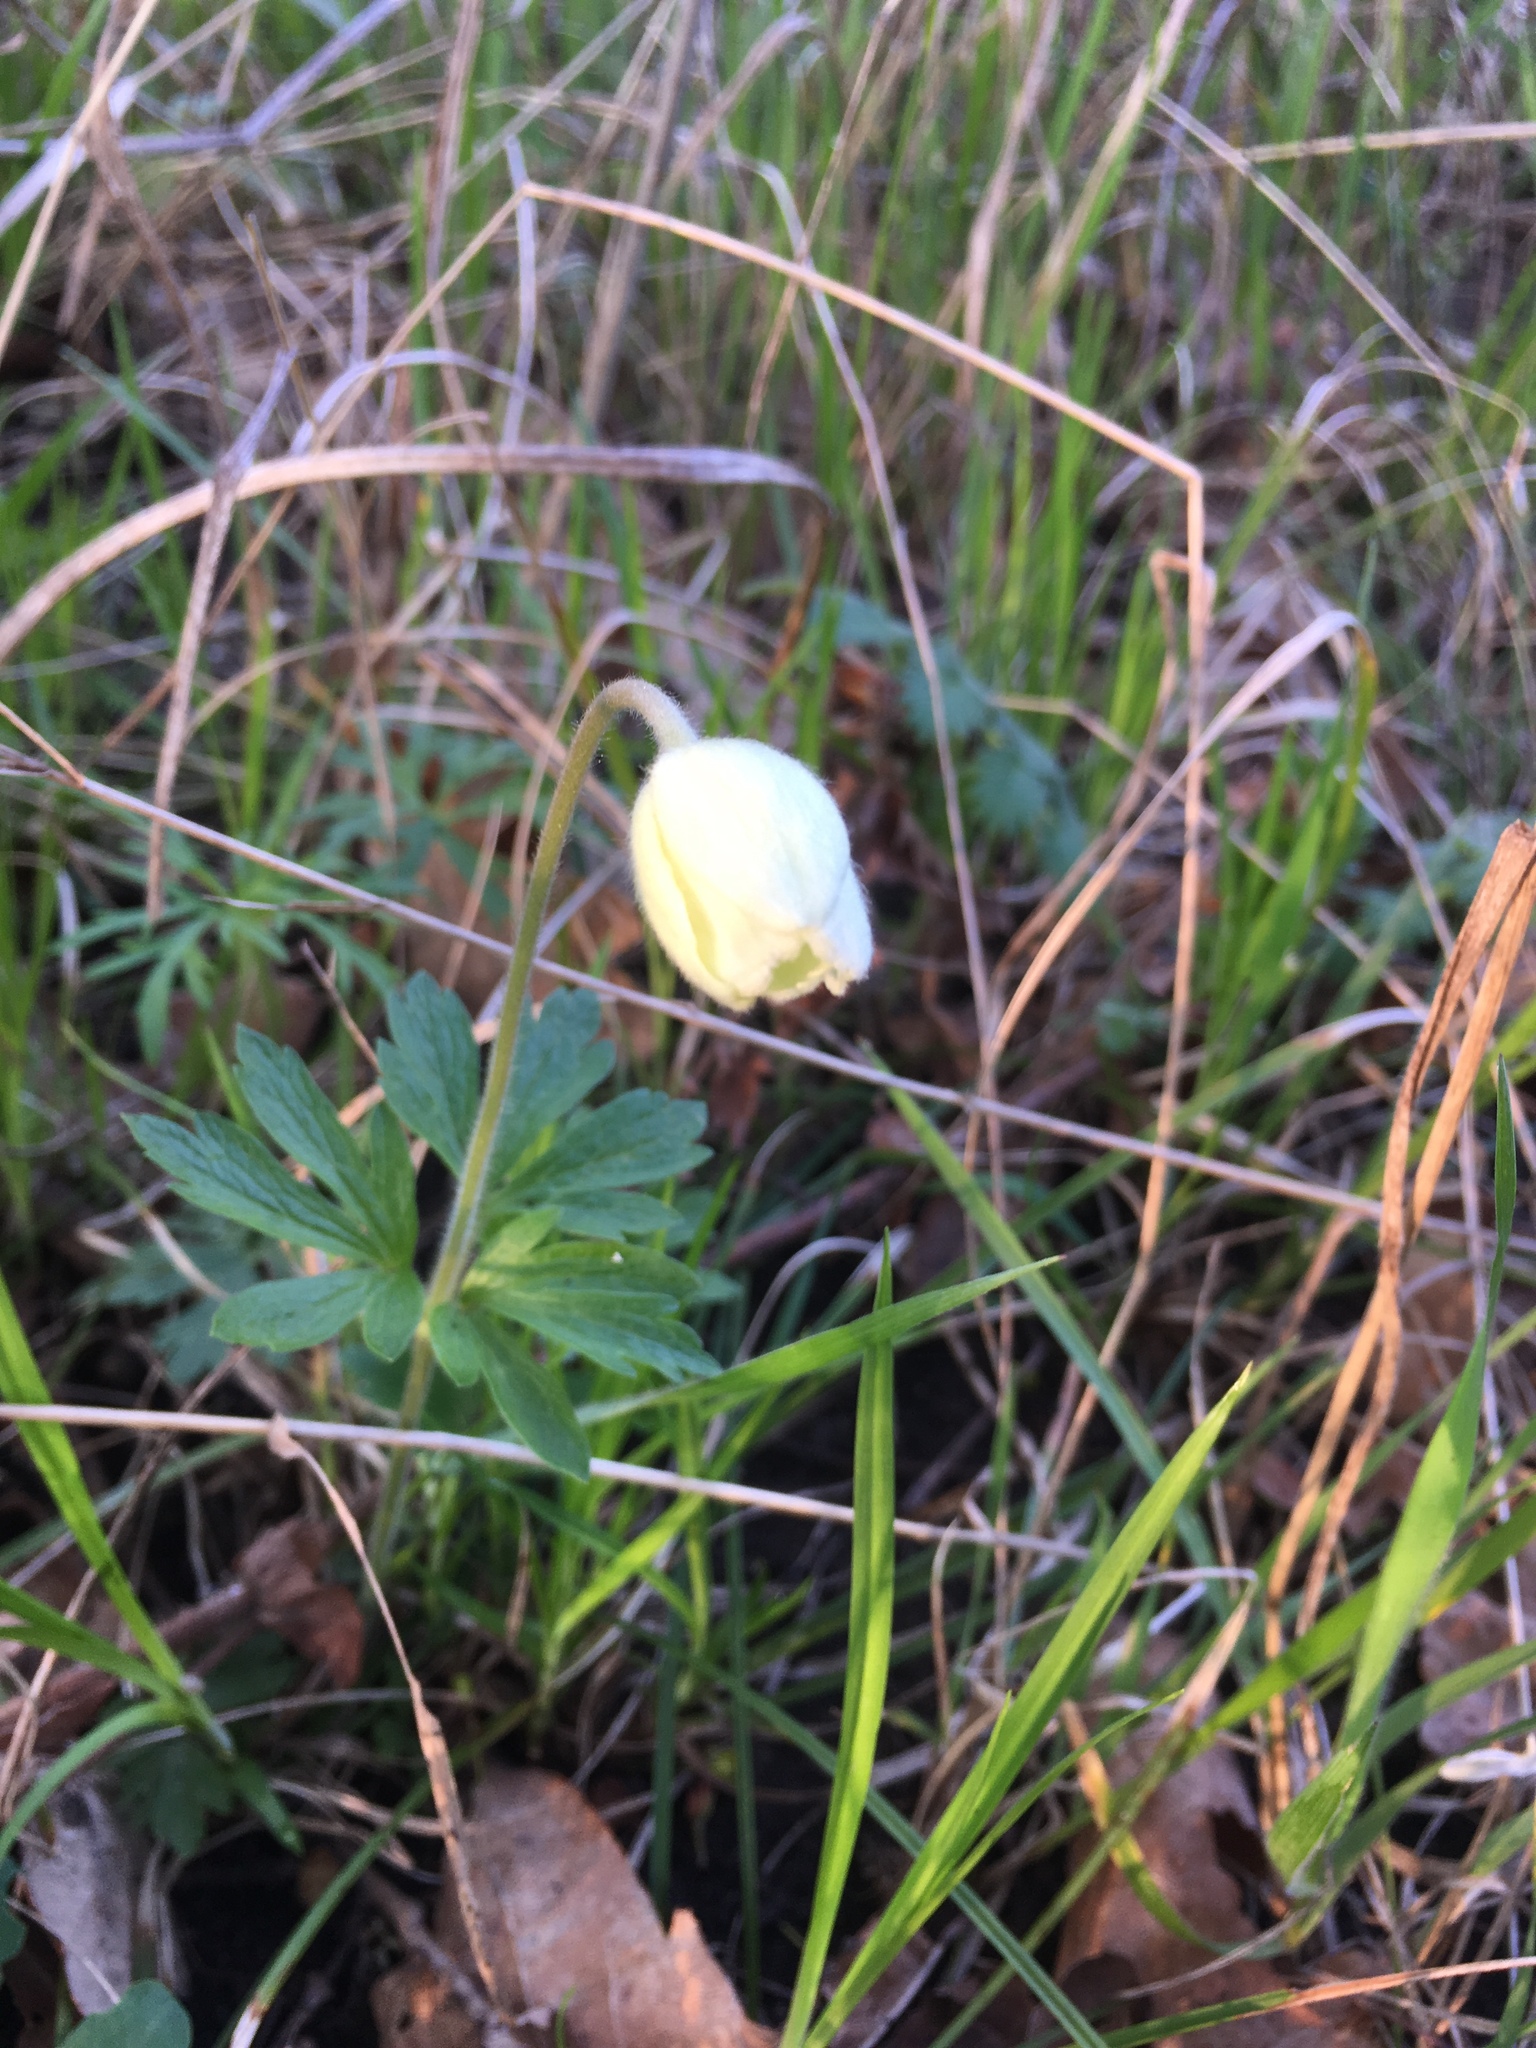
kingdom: Plantae
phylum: Tracheophyta
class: Magnoliopsida
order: Ranunculales
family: Ranunculaceae
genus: Anemone
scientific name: Anemone sylvestris
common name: Snowdrop anemone
